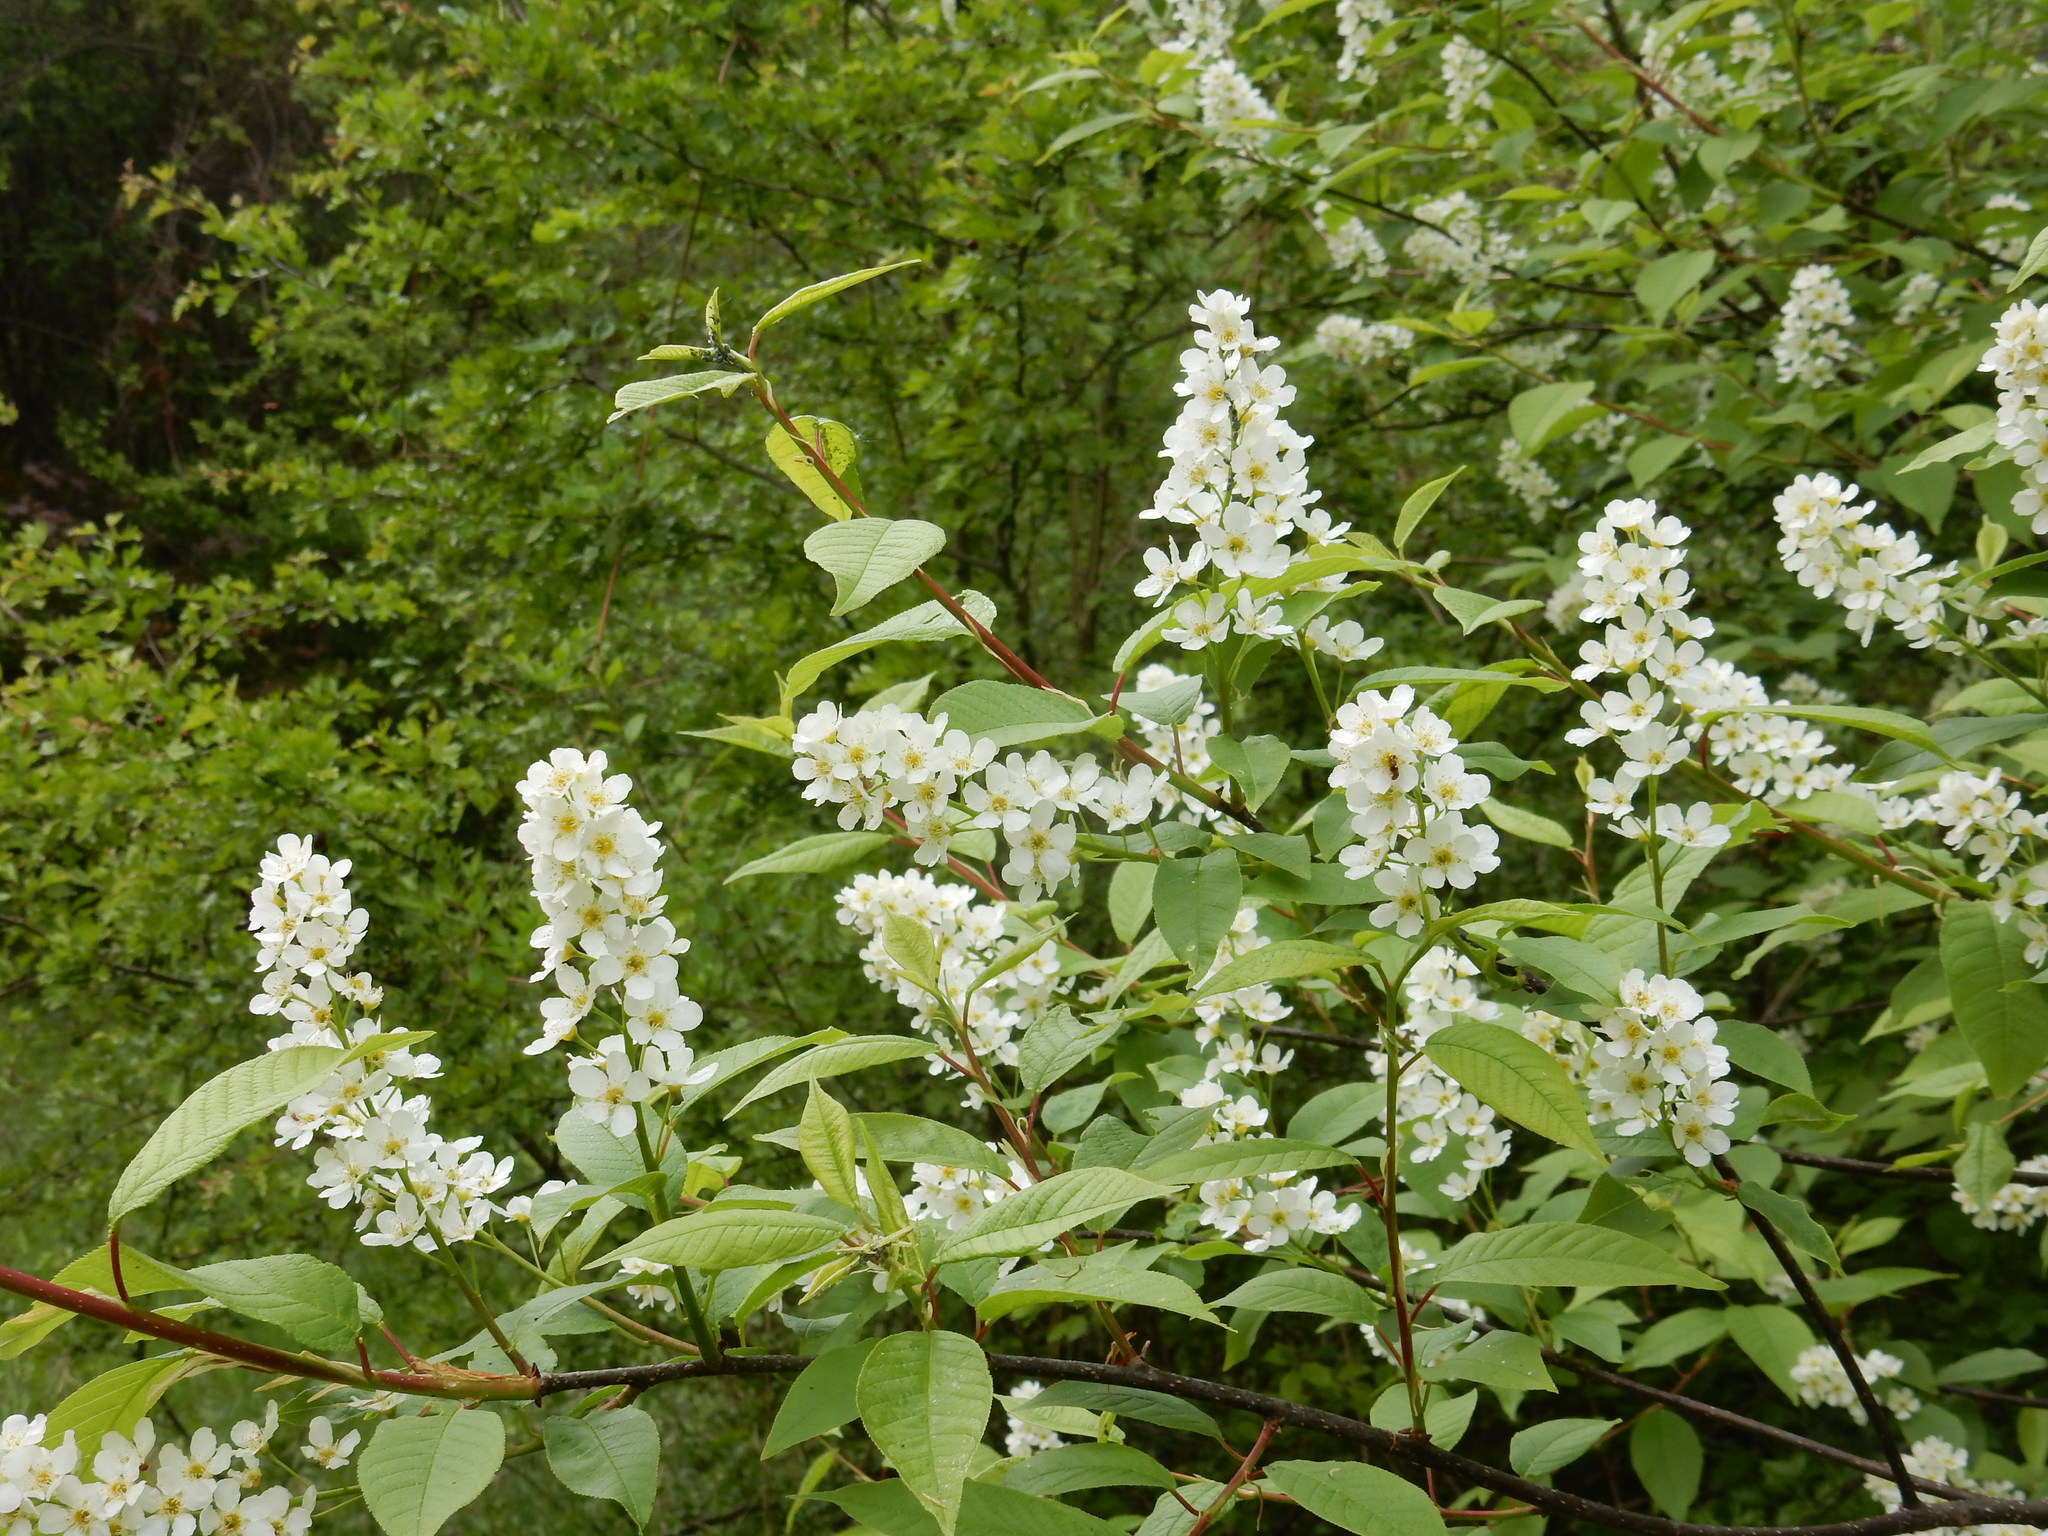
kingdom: Plantae
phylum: Tracheophyta
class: Magnoliopsida
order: Rosales
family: Rosaceae
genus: Prunus
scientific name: Prunus padus
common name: Bird cherry
